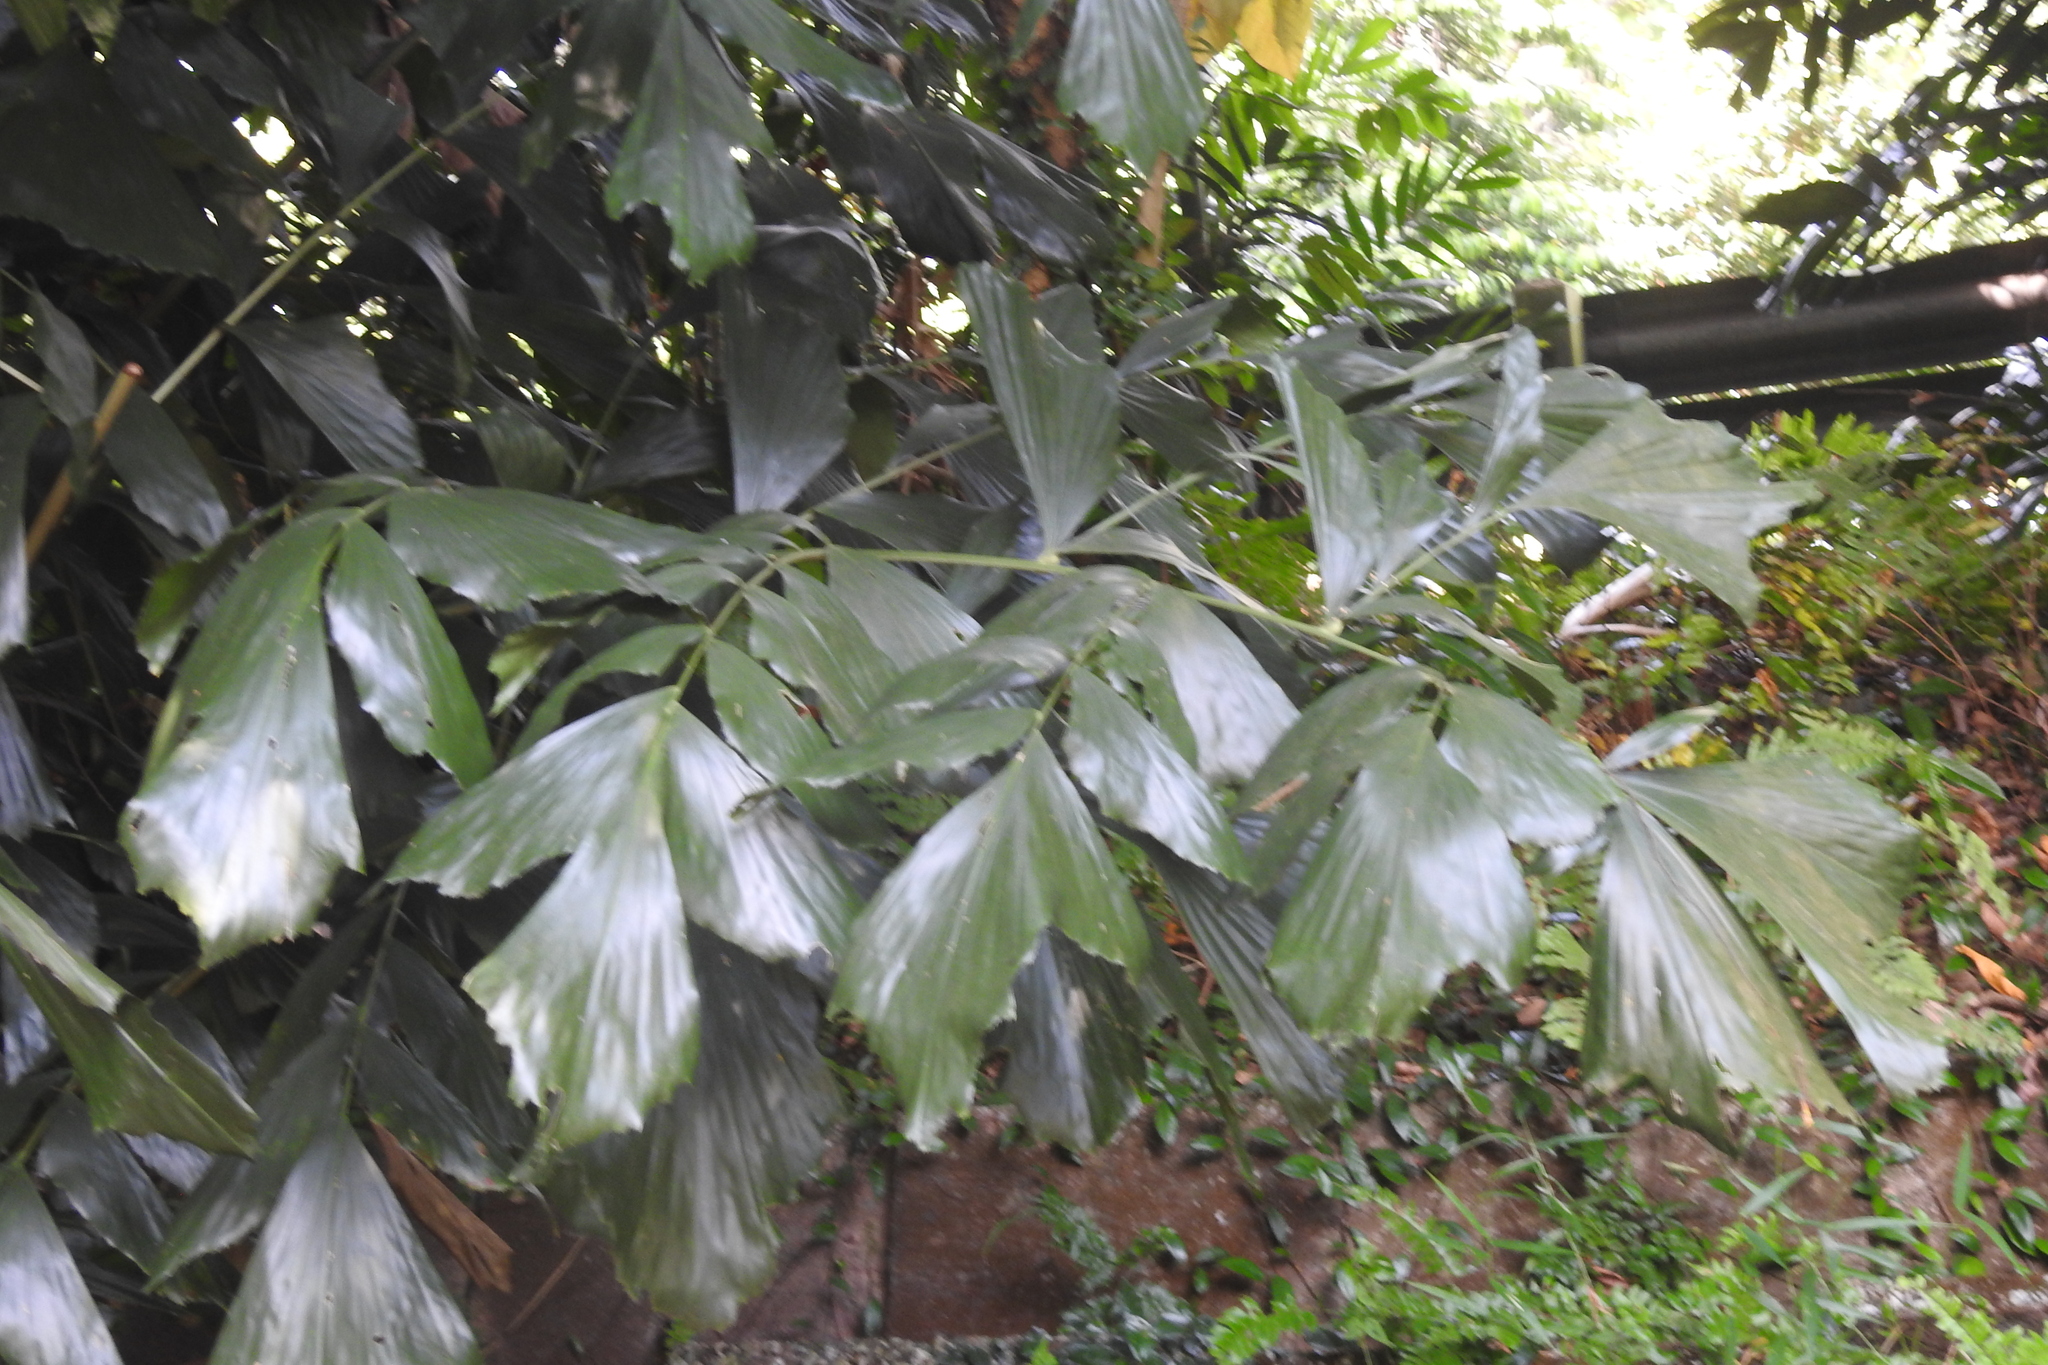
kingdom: Plantae
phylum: Tracheophyta
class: Liliopsida
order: Arecales
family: Arecaceae
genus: Caryota
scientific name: Caryota mitis
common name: Burmese fishtail palm
